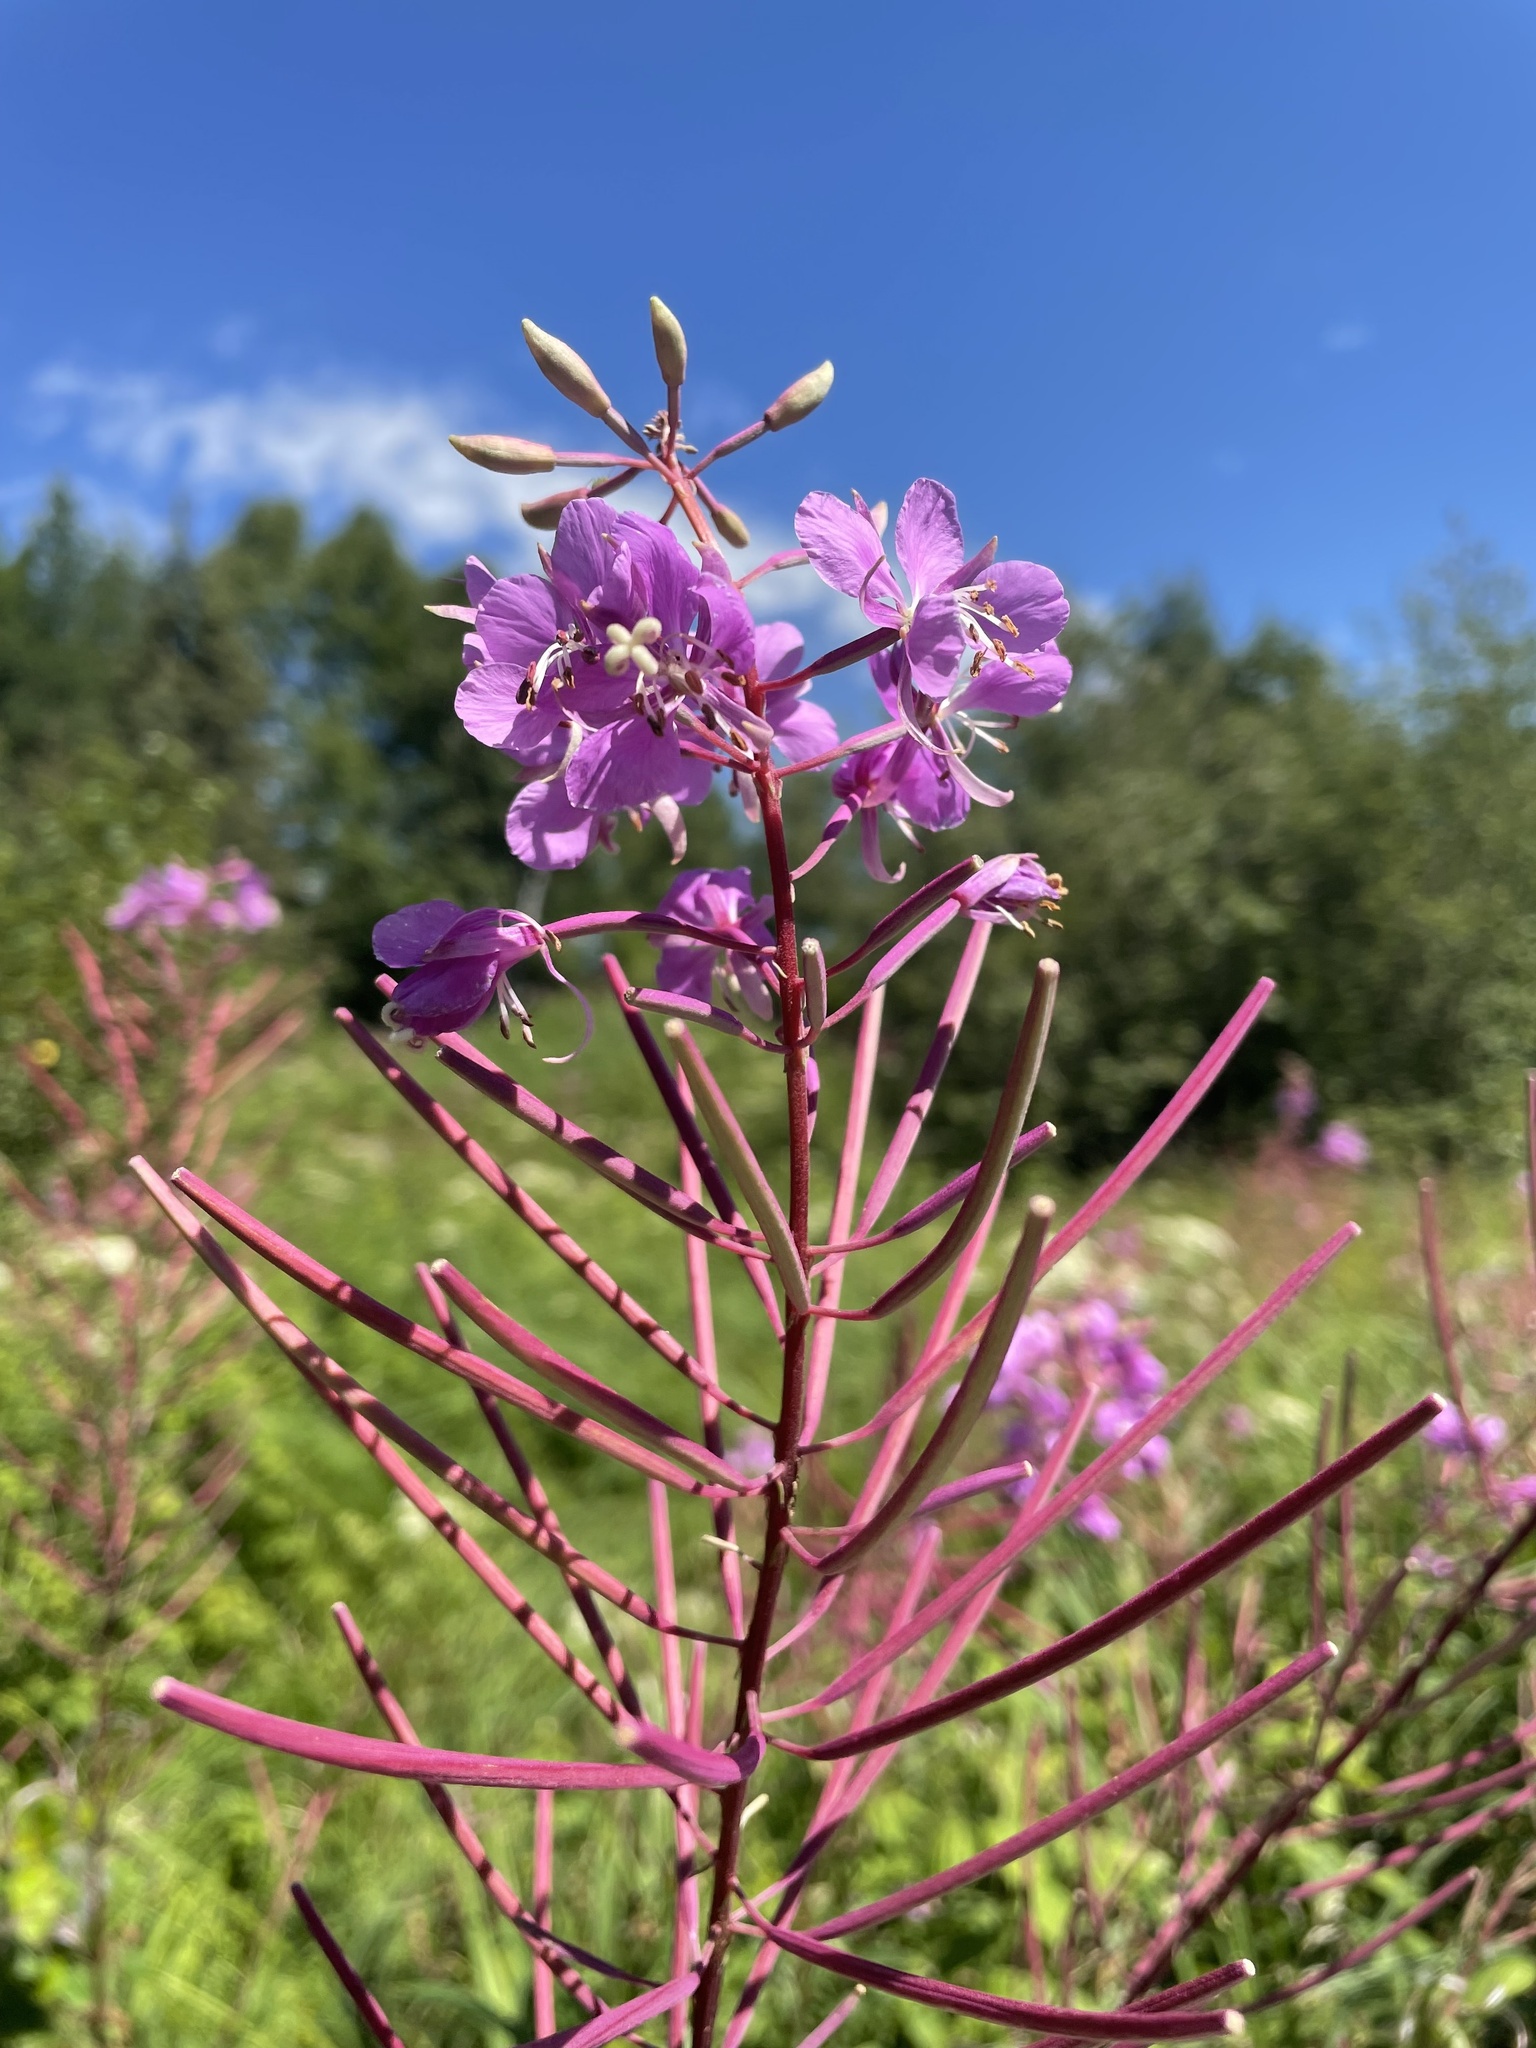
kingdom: Plantae
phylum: Tracheophyta
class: Magnoliopsida
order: Myrtales
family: Onagraceae
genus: Chamaenerion
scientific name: Chamaenerion angustifolium
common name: Fireweed
